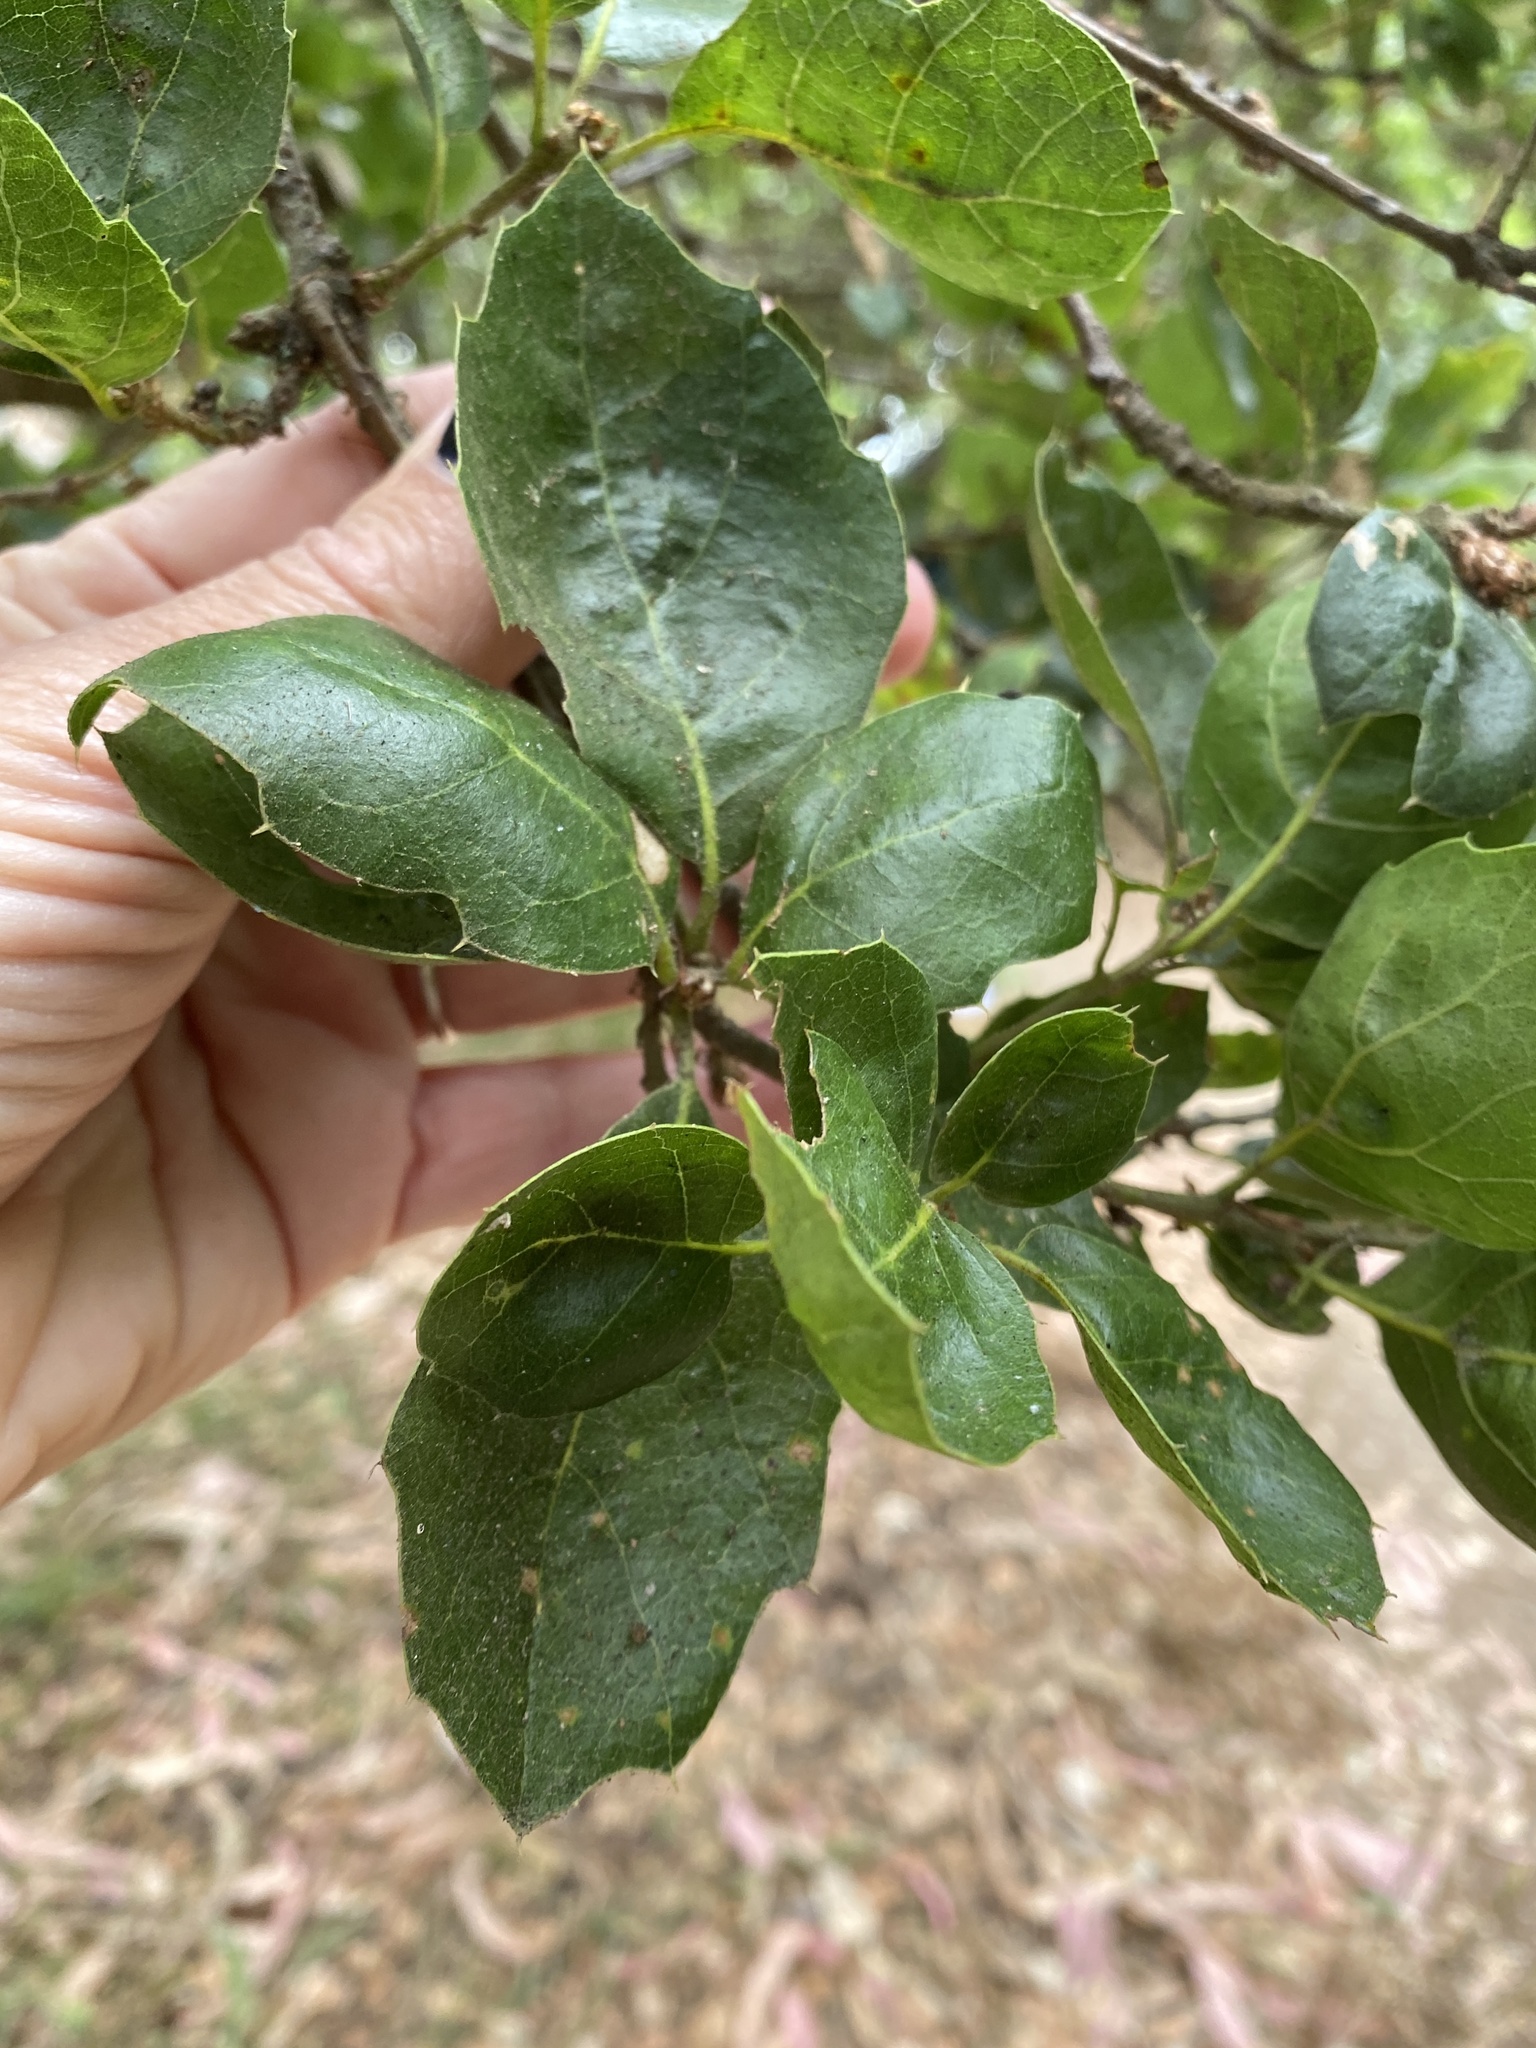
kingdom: Plantae
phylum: Tracheophyta
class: Magnoliopsida
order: Fagales
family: Fagaceae
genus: Quercus
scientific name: Quercus agrifolia
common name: California live oak
